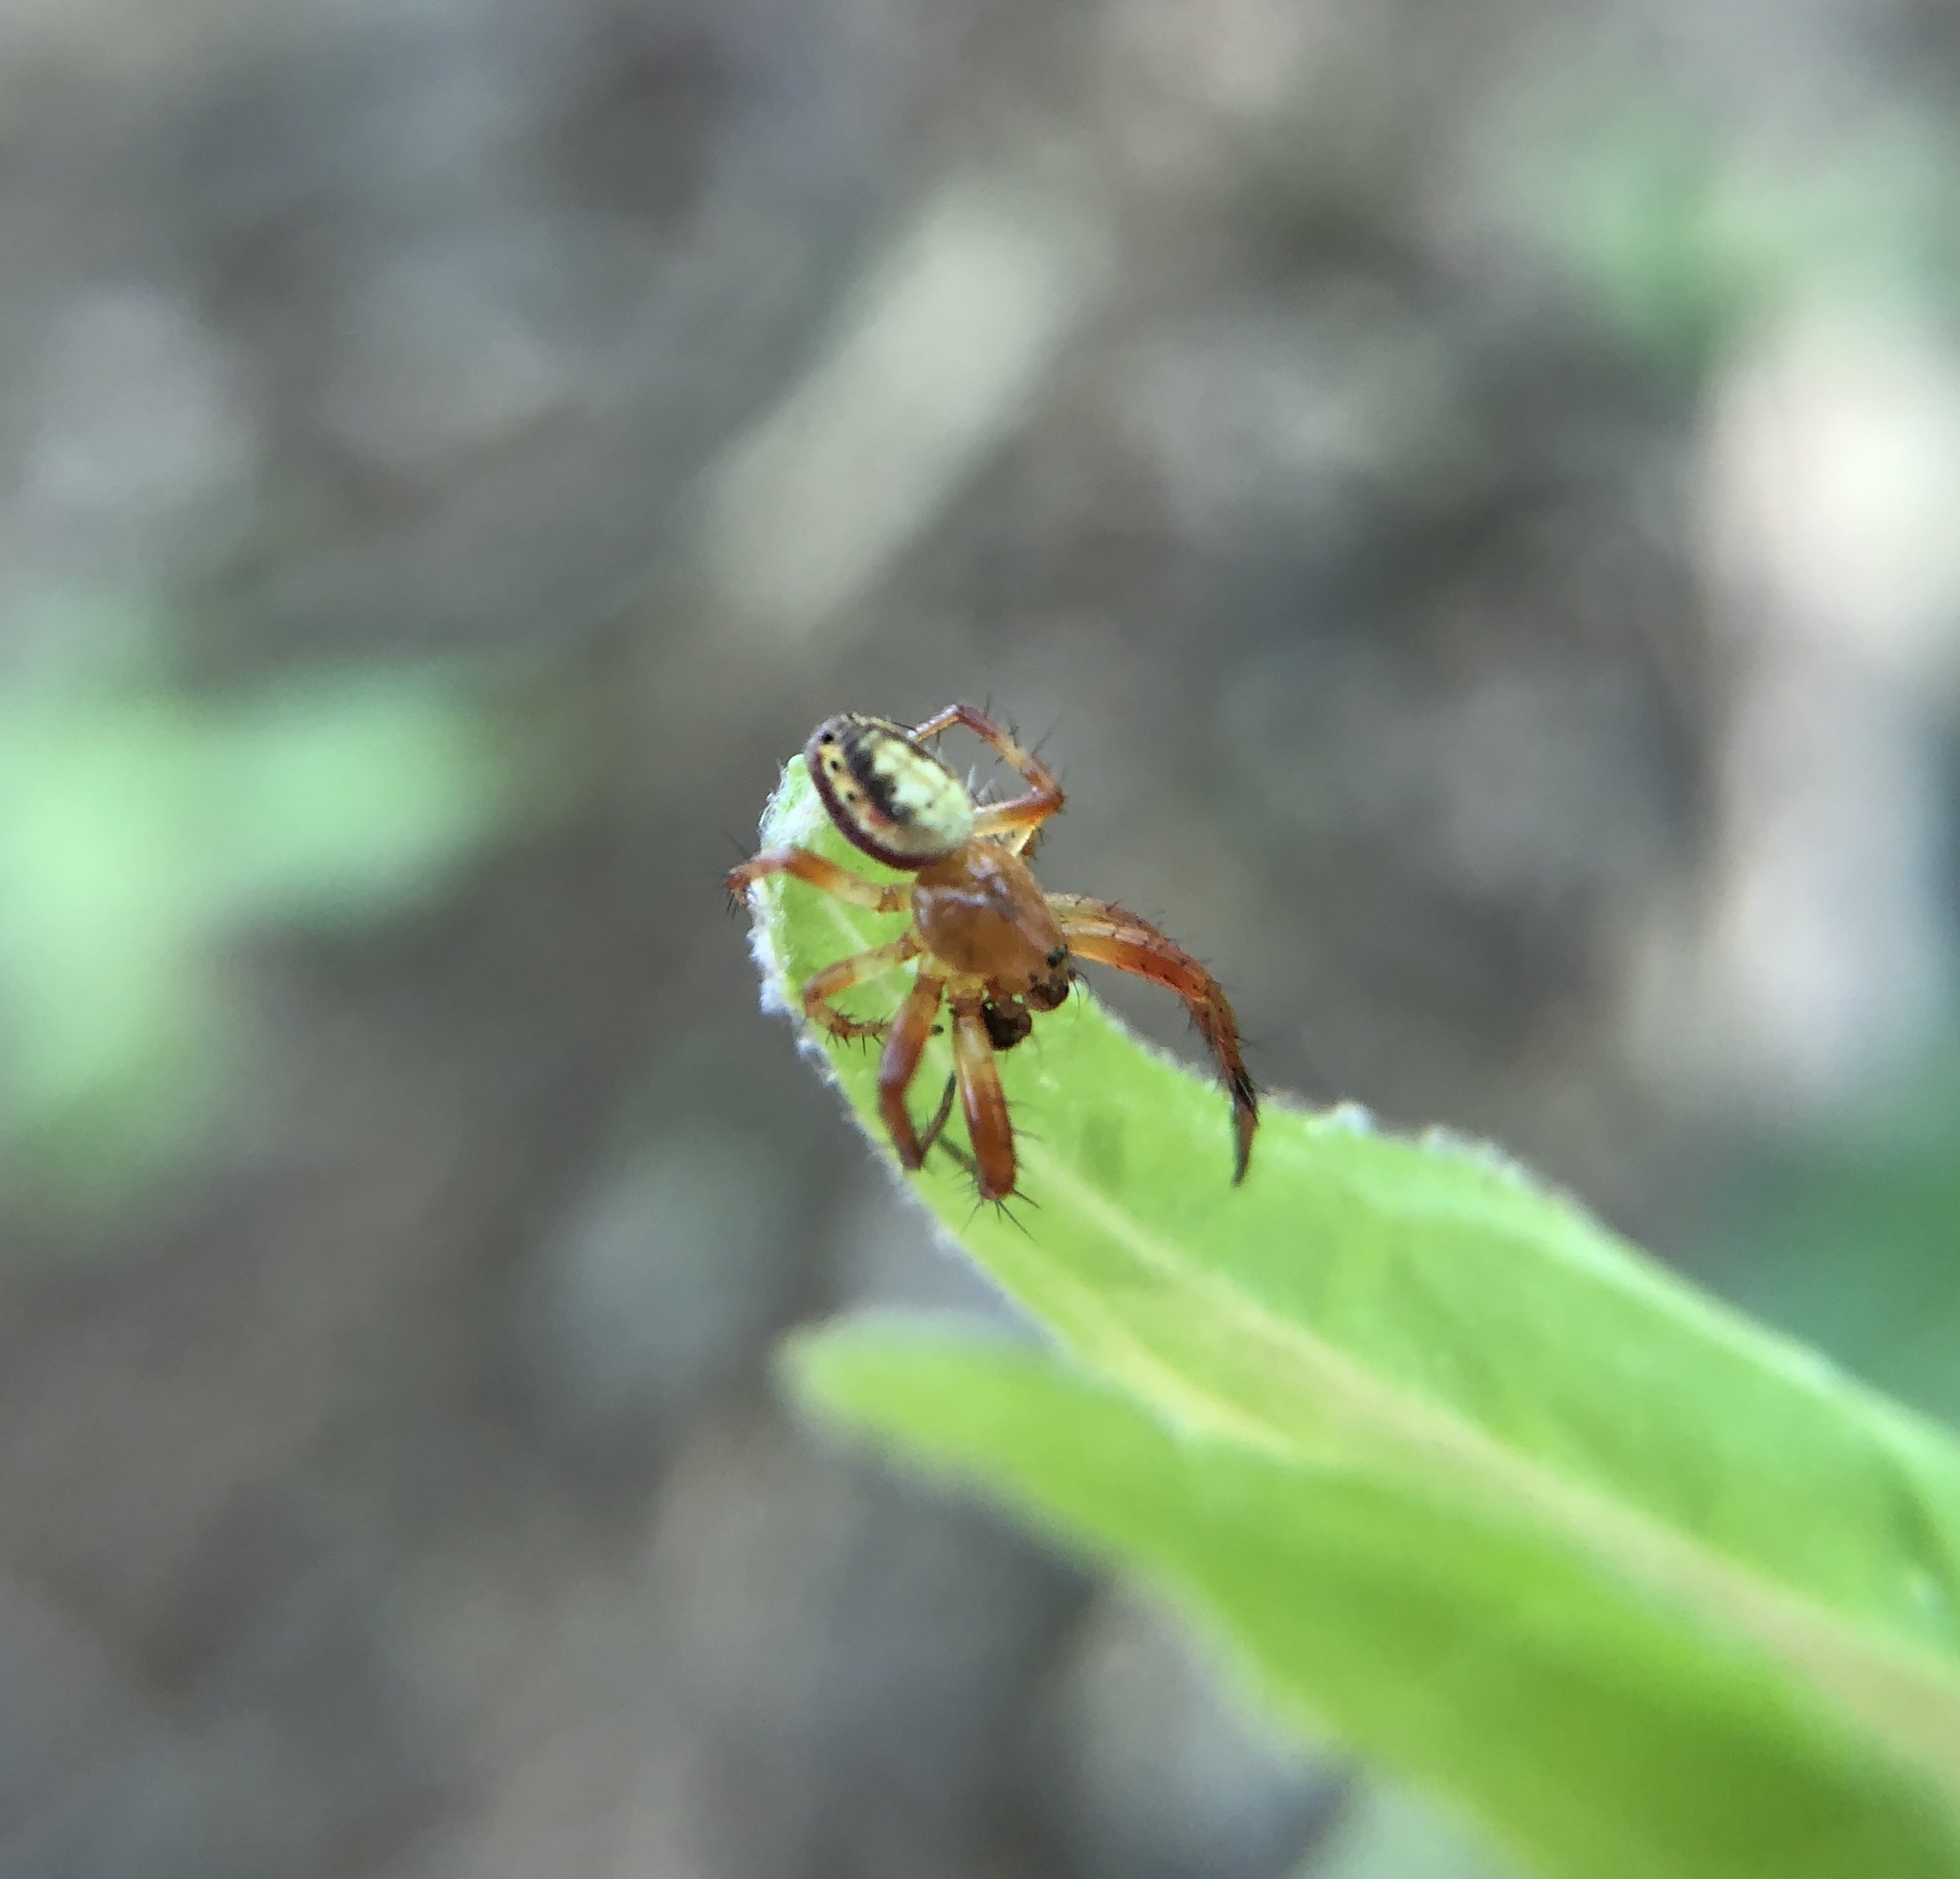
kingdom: Animalia
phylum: Arthropoda
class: Arachnida
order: Araneae
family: Araneidae
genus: Araniella
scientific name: Araniella displicata
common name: Sixspotted orb weaver
